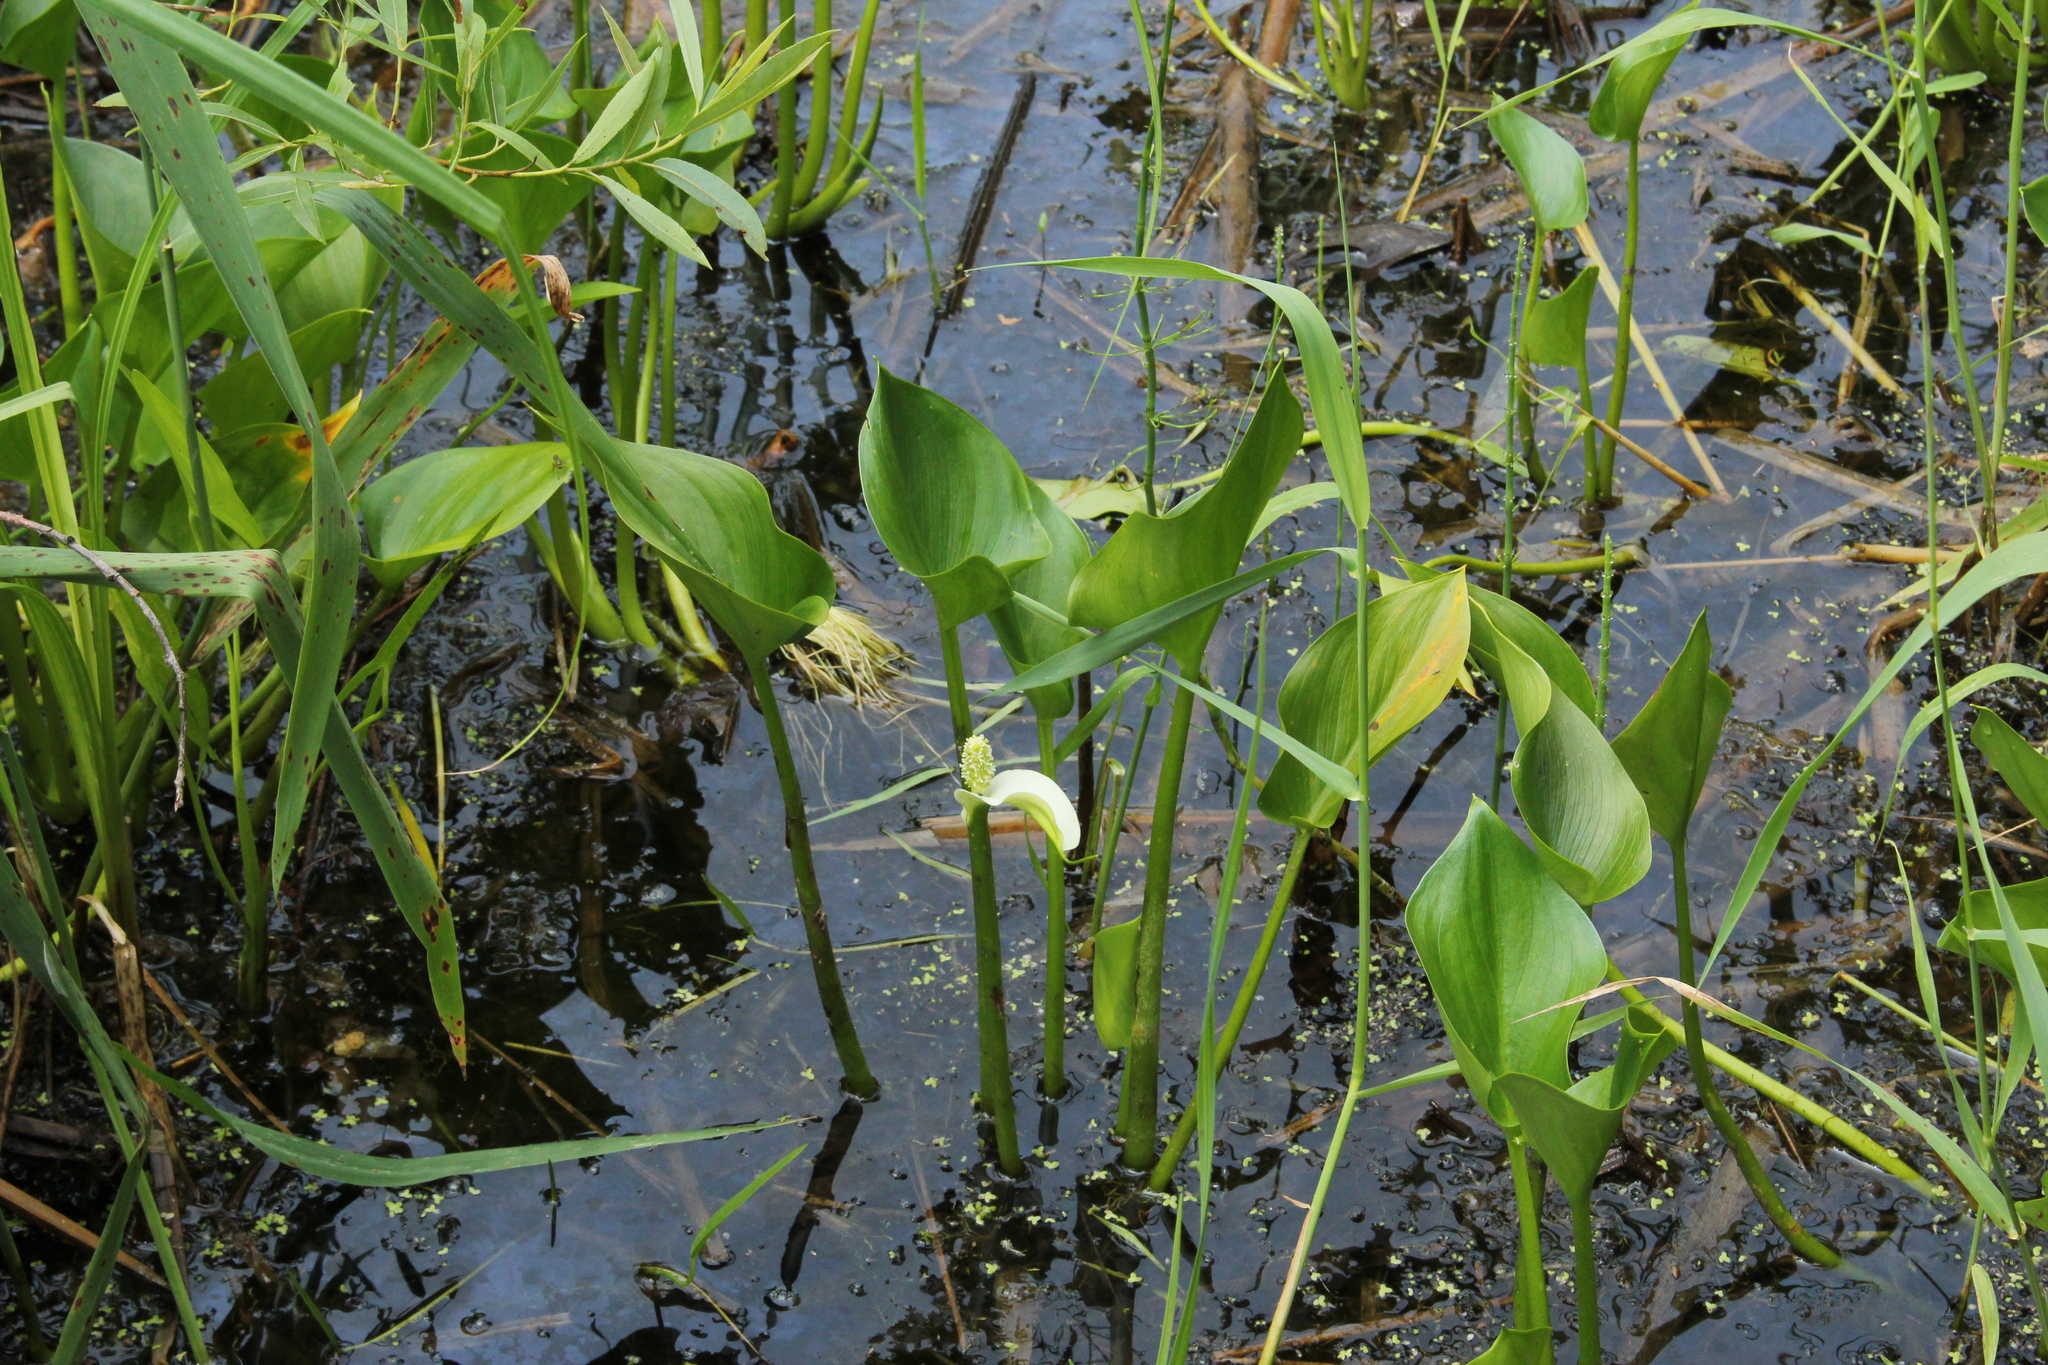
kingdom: Plantae
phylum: Tracheophyta
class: Liliopsida
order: Alismatales
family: Araceae
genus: Calla
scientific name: Calla palustris
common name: Bog arum
